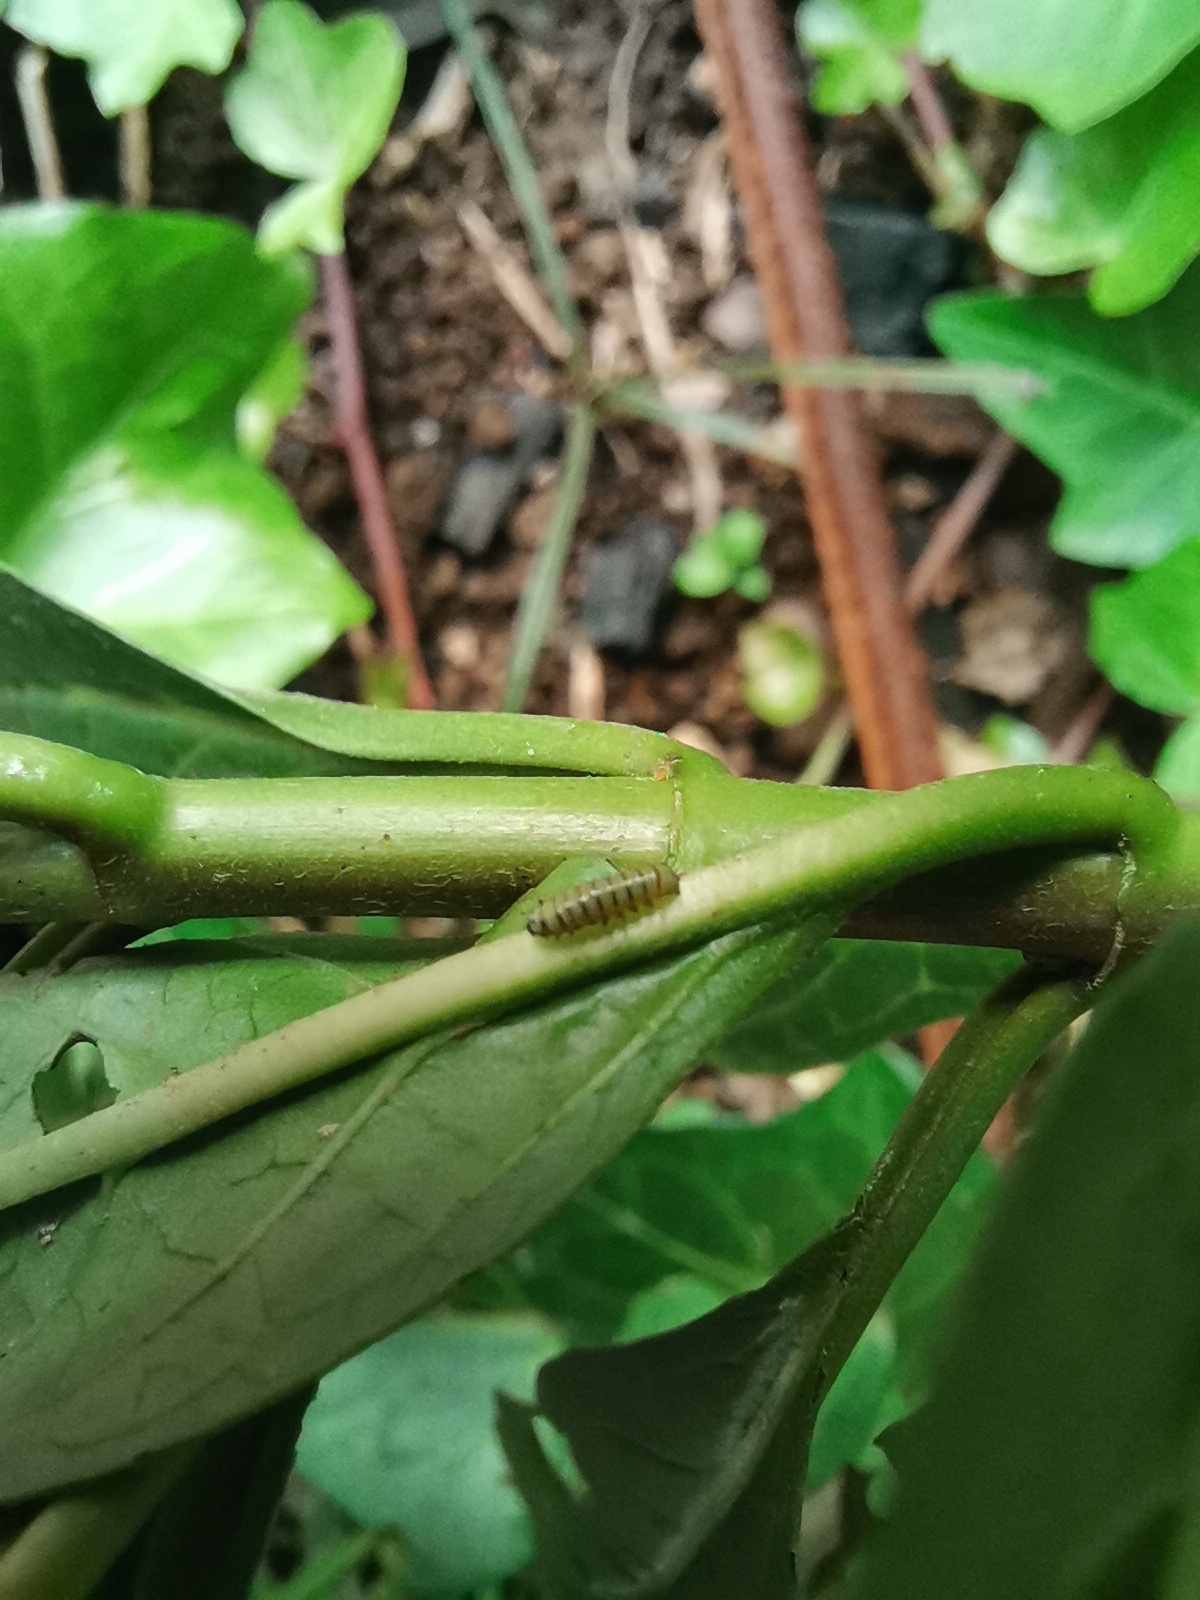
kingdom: Animalia
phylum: Arthropoda
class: Insecta
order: Lepidoptera
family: Nymphalidae
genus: Danaus
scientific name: Danaus plexippus
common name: Monarch
